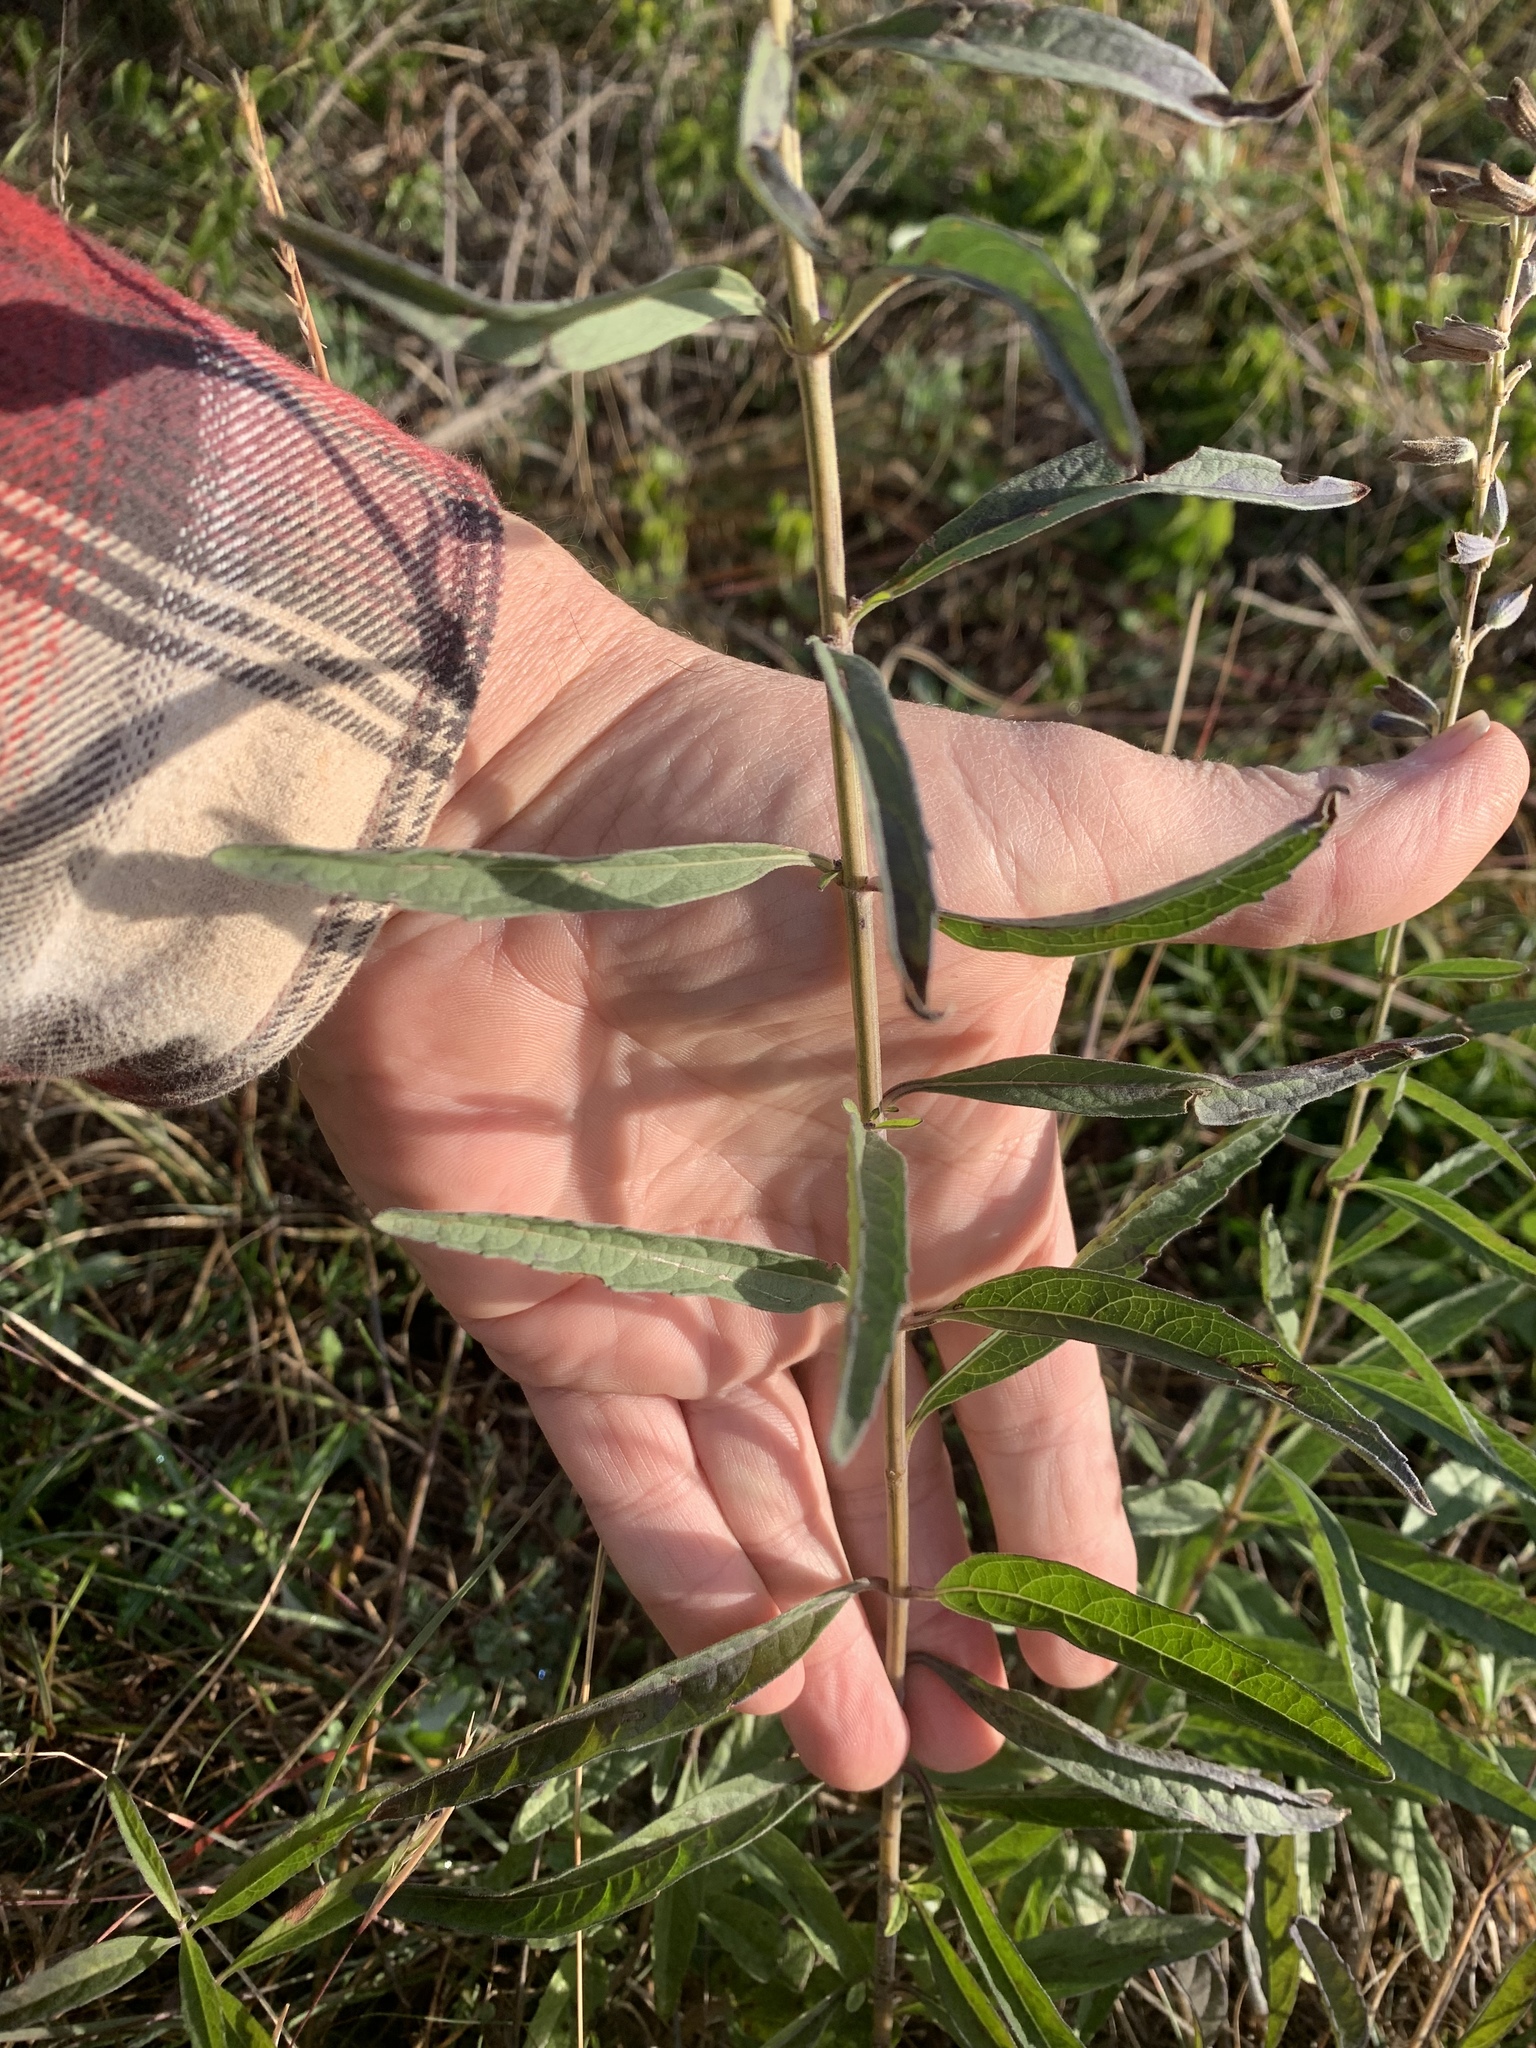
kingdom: Plantae
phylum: Tracheophyta
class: Magnoliopsida
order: Lamiales
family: Lamiaceae
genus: Salvia
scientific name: Salvia azurea
